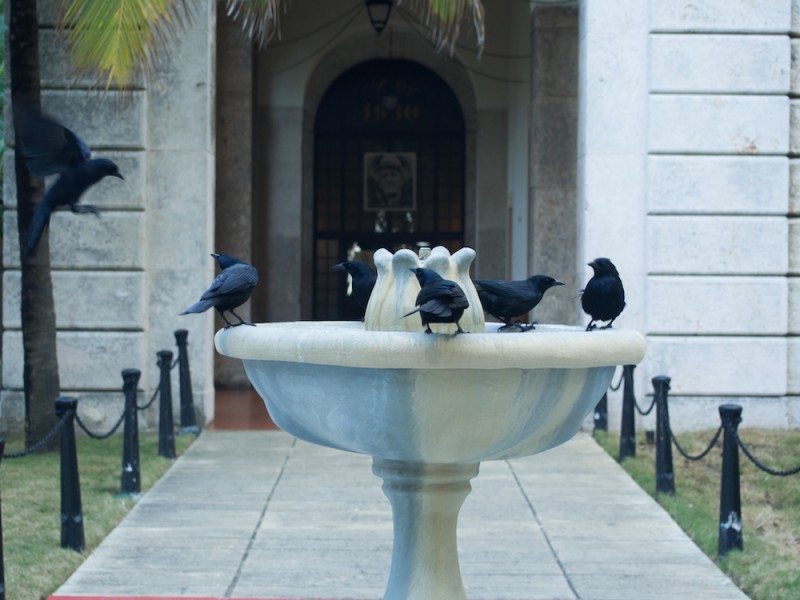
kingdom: Animalia
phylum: Chordata
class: Aves
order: Passeriformes
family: Icteridae
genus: Dives
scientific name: Dives atroviolaceus
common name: Cuban blackbird
